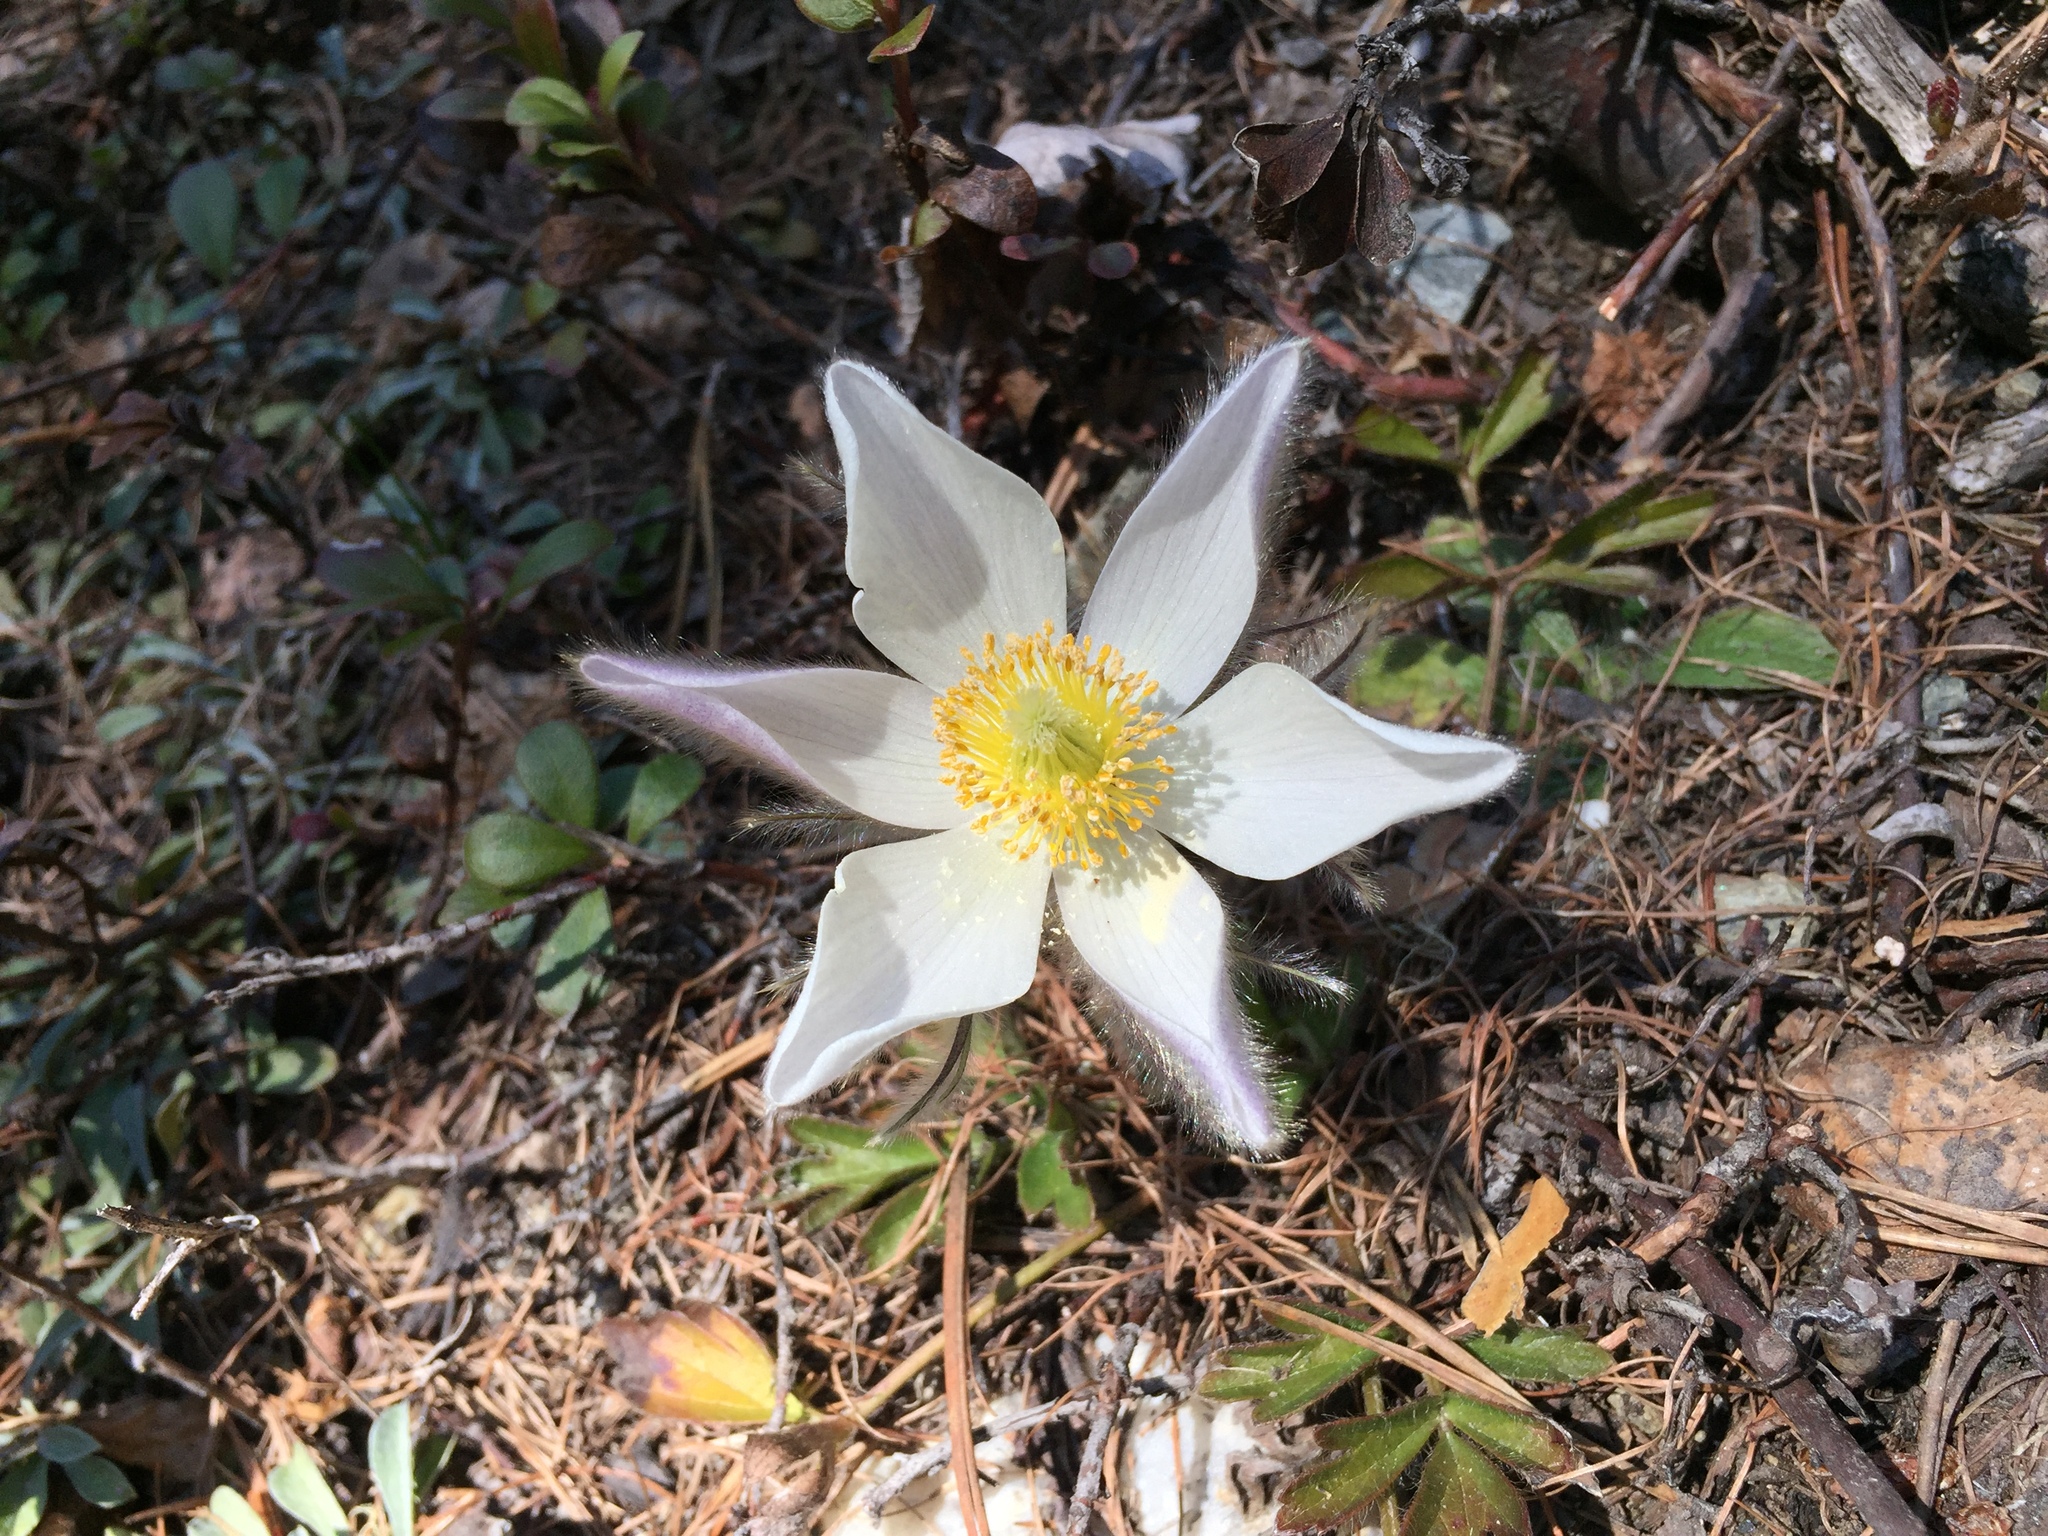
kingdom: Plantae
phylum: Tracheophyta
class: Magnoliopsida
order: Ranunculales
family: Ranunculaceae
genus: Pulsatilla
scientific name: Pulsatilla vernalis
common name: Spring pasque flower
